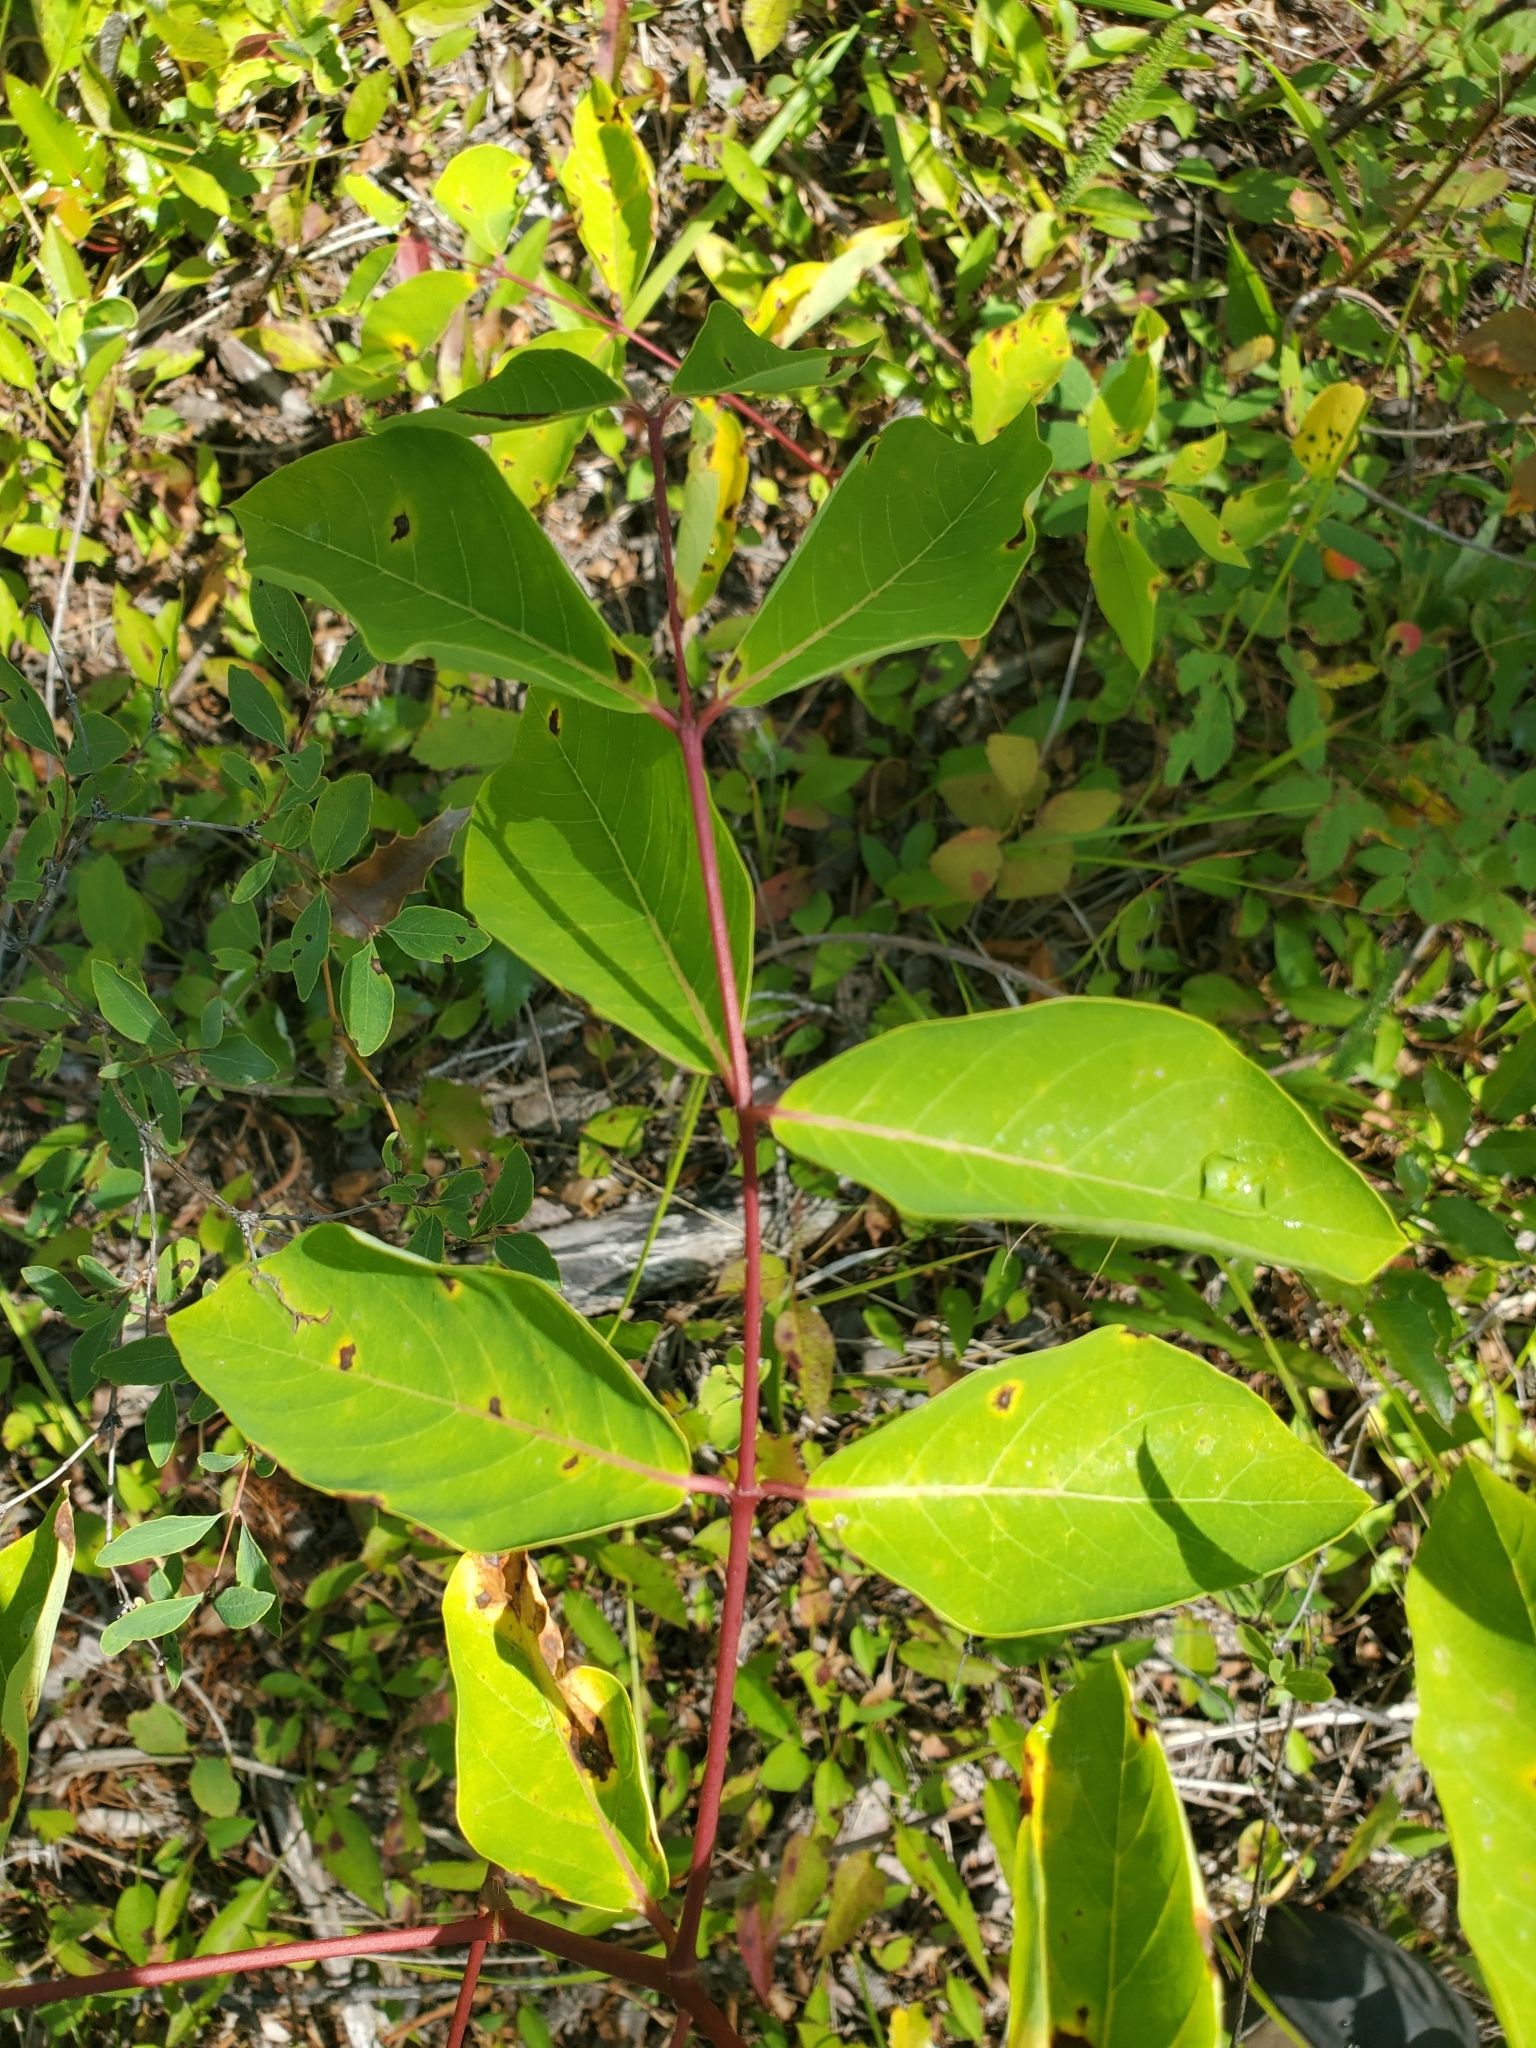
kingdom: Plantae
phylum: Tracheophyta
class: Magnoliopsida
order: Gentianales
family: Apocynaceae
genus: Apocynum
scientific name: Apocynum androsaemifolium
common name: Spreading dogbane
